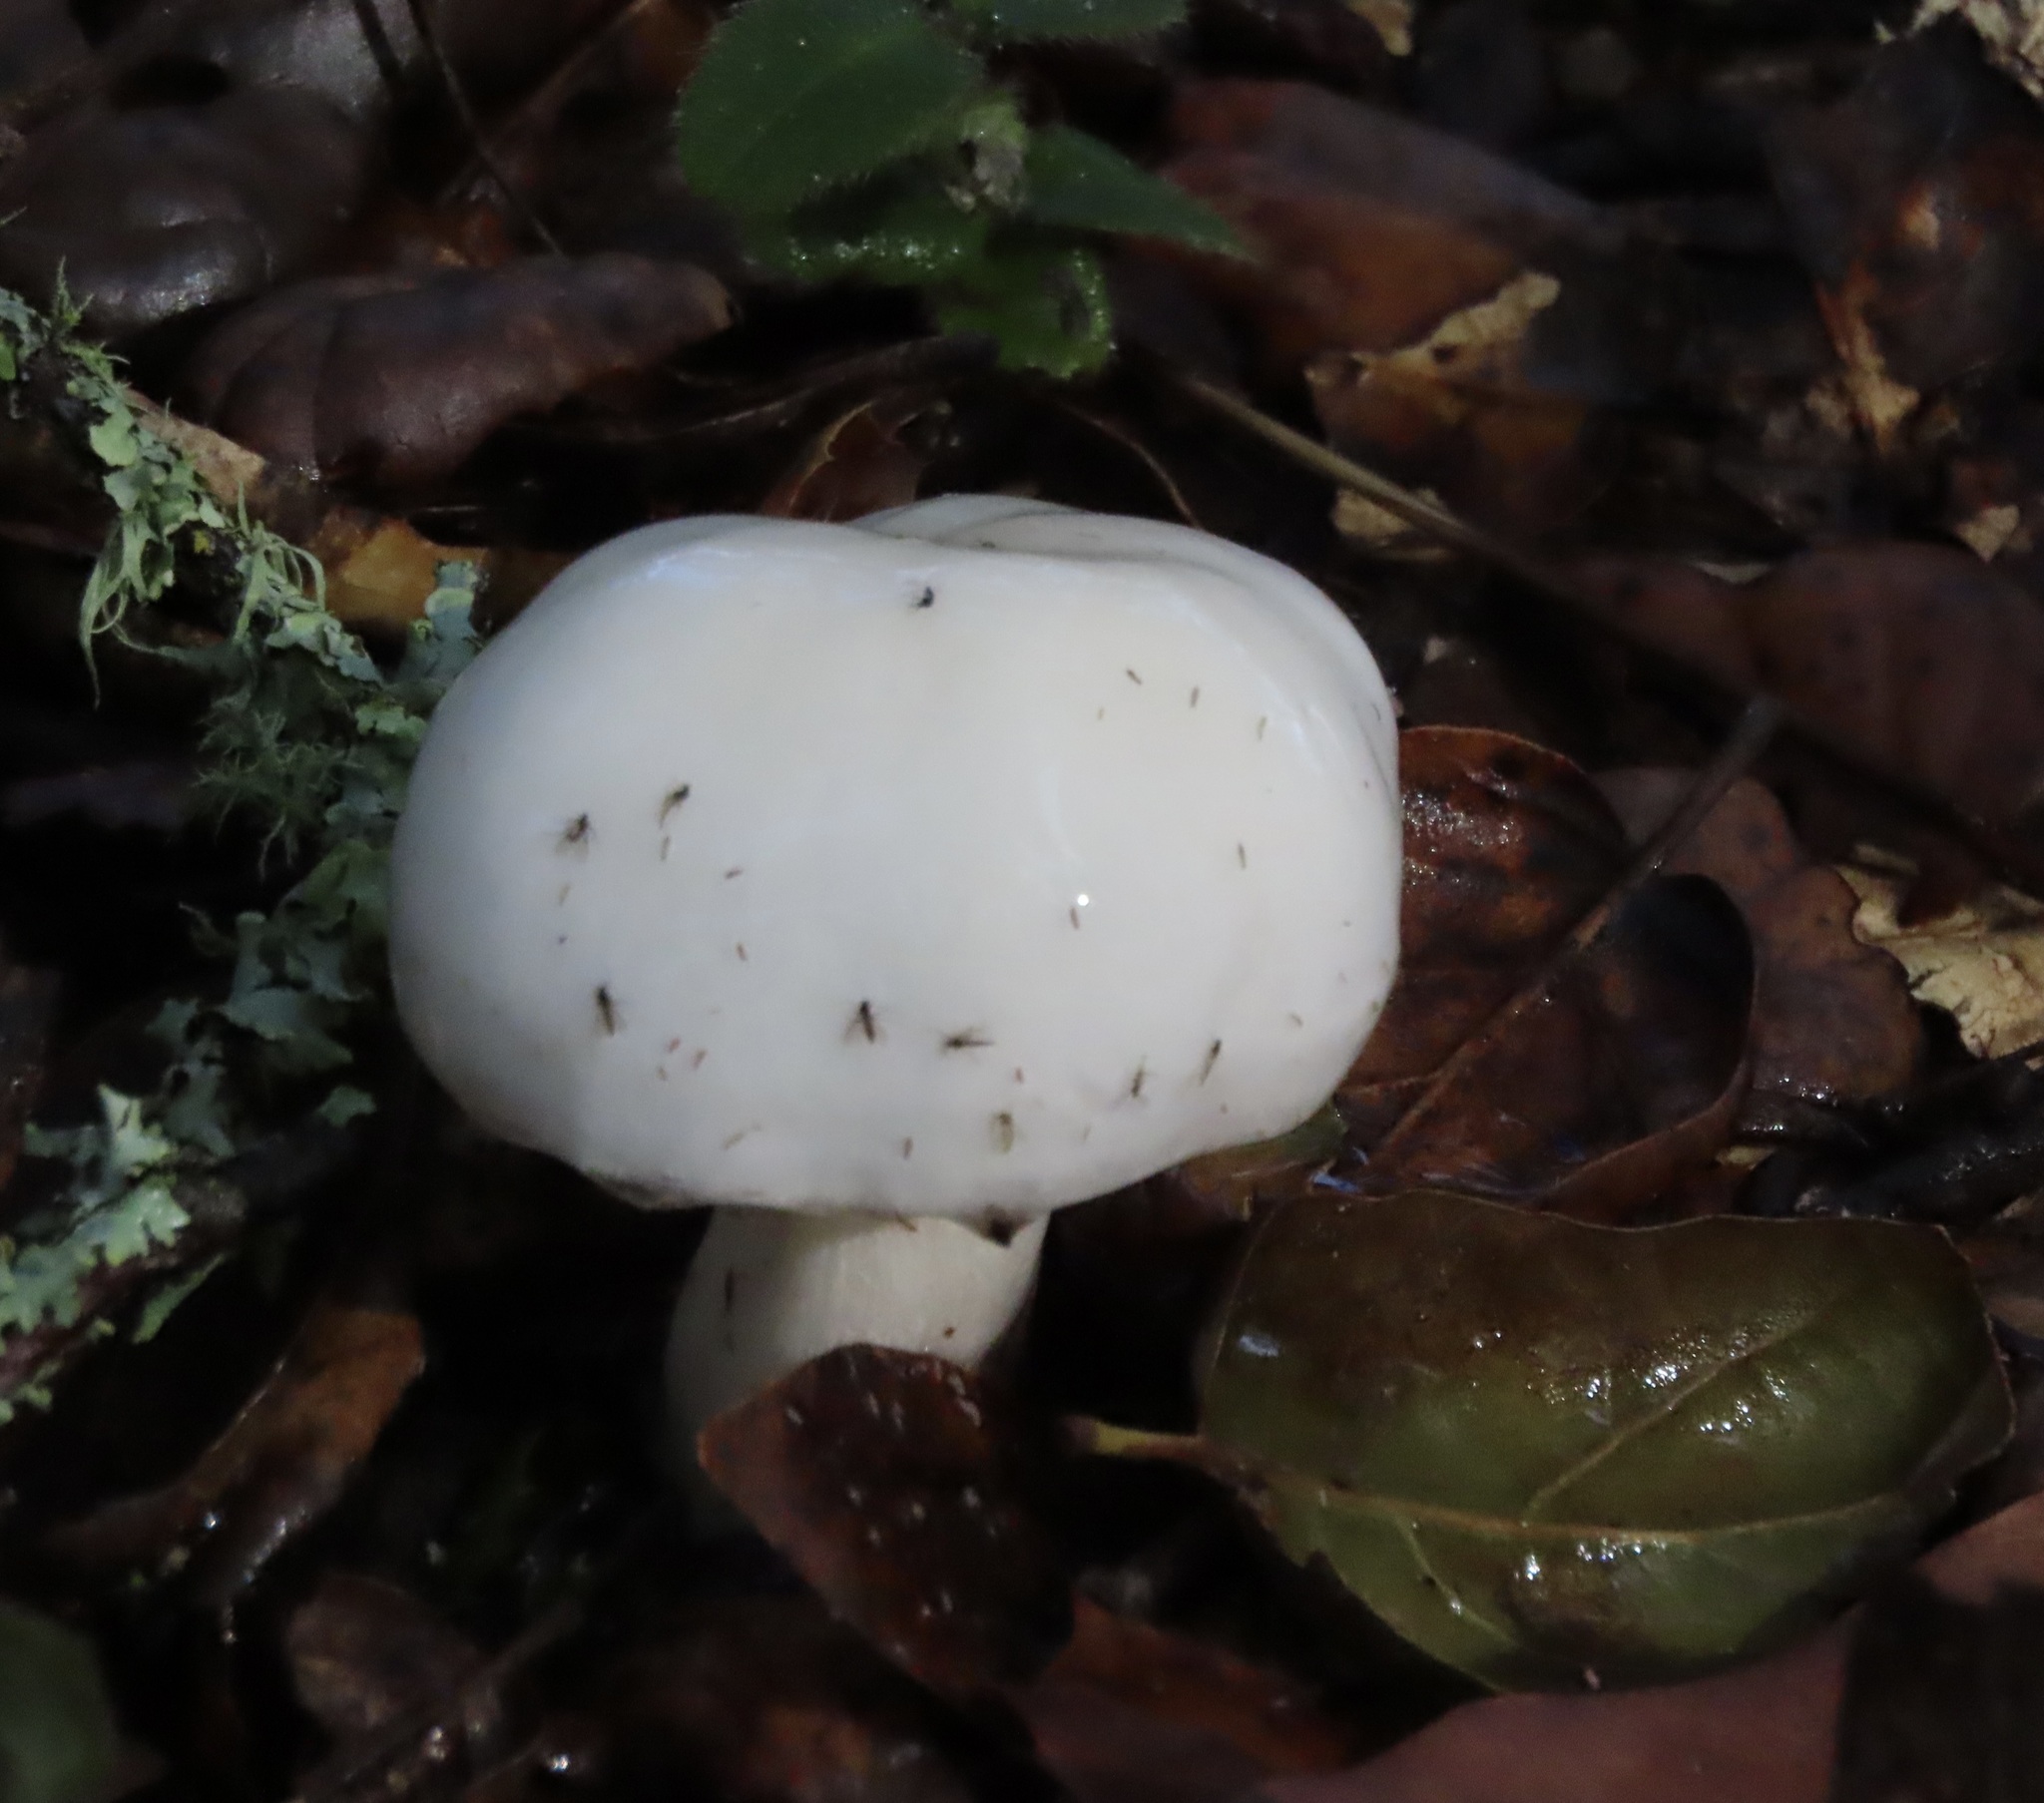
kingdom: Fungi
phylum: Basidiomycota
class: Agaricomycetes
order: Agaricales
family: Hygrophoraceae
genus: Hygrophorus
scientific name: Hygrophorus eburneus
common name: Ivory wax-cap
